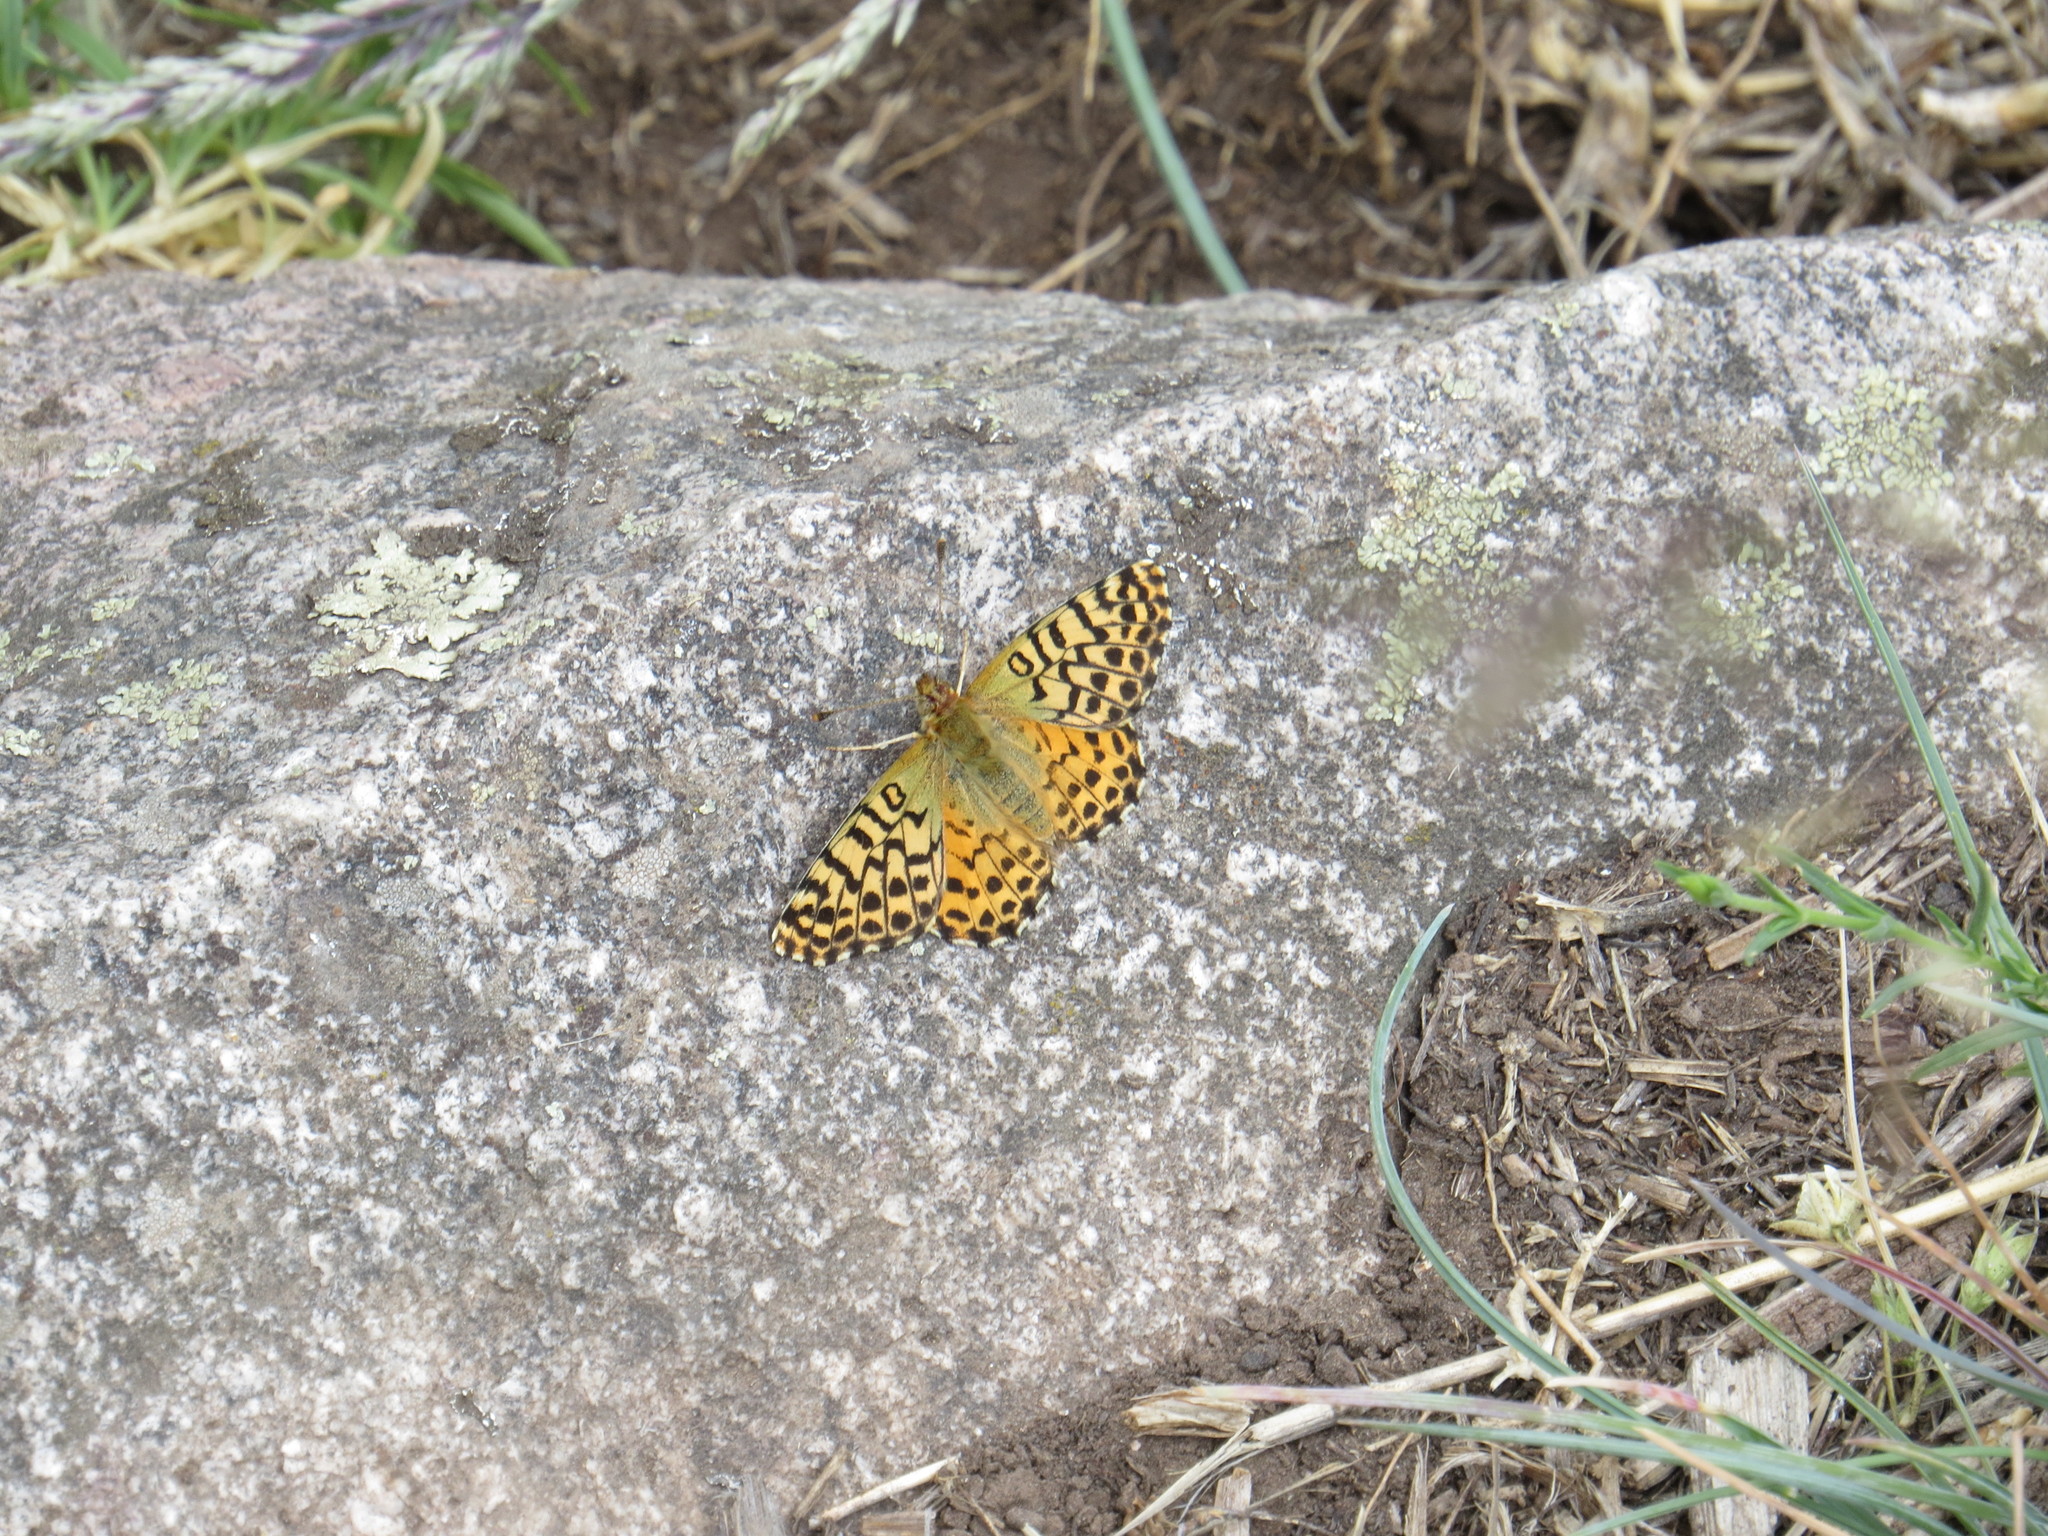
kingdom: Animalia
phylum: Arthropoda
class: Insecta
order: Lepidoptera
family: Nymphalidae
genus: Issoria
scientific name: Issoria Yramea lathonoides
